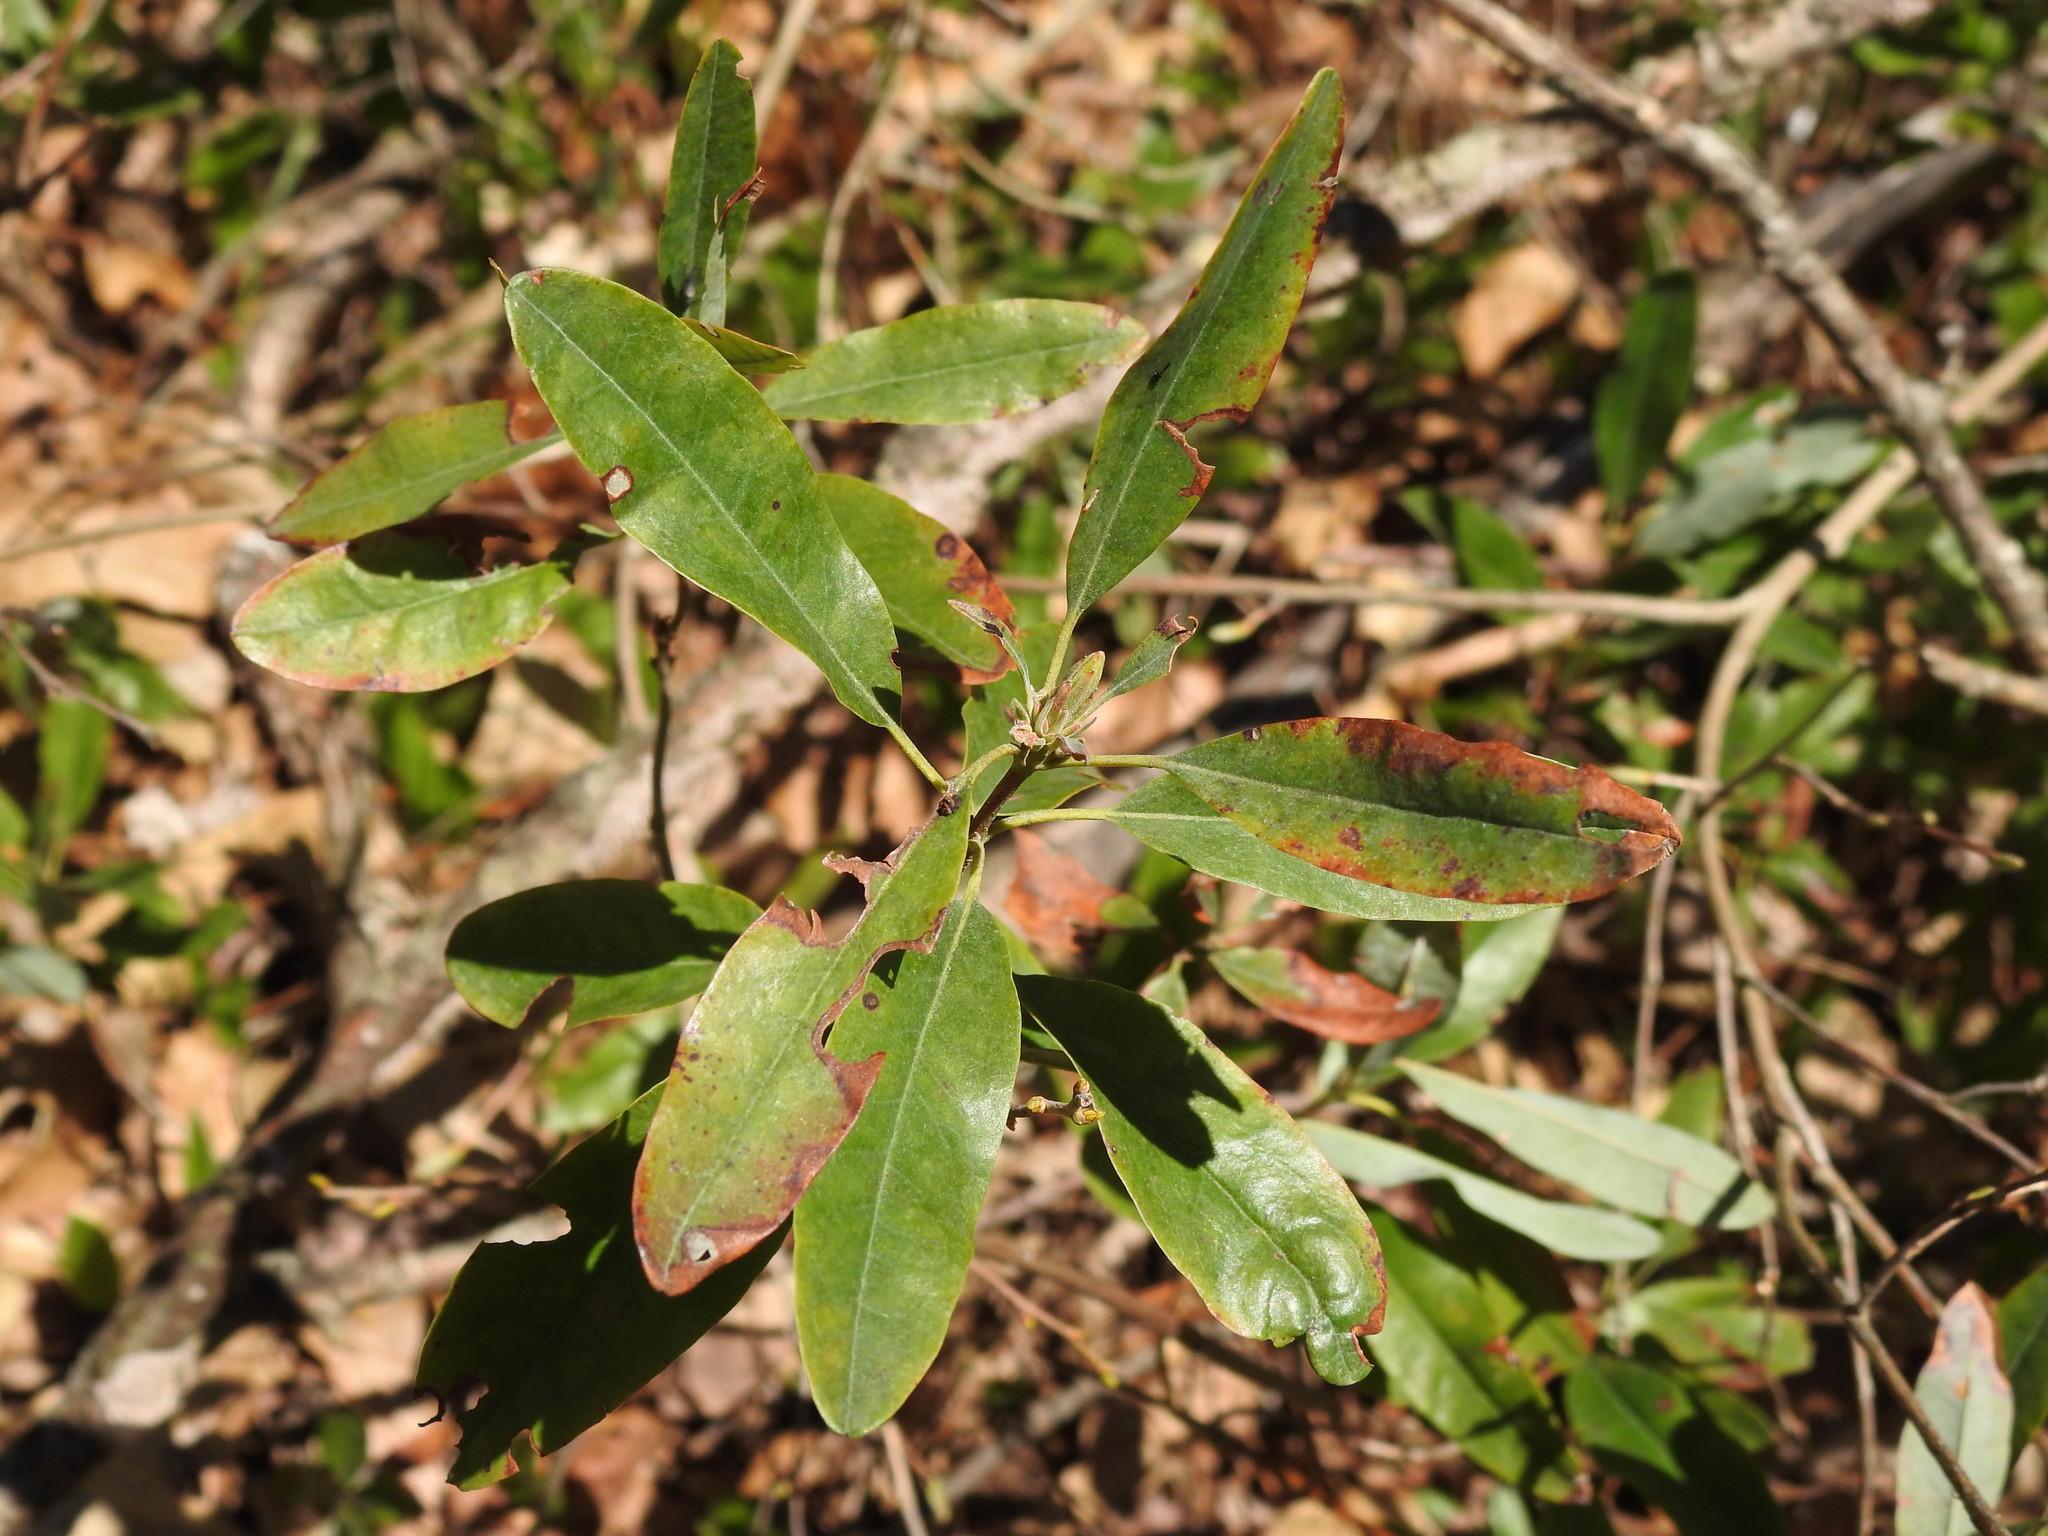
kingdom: Plantae
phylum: Tracheophyta
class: Magnoliopsida
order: Ericales
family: Ericaceae
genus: Kalmia
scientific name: Kalmia angustifolia
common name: Sheep-laurel
